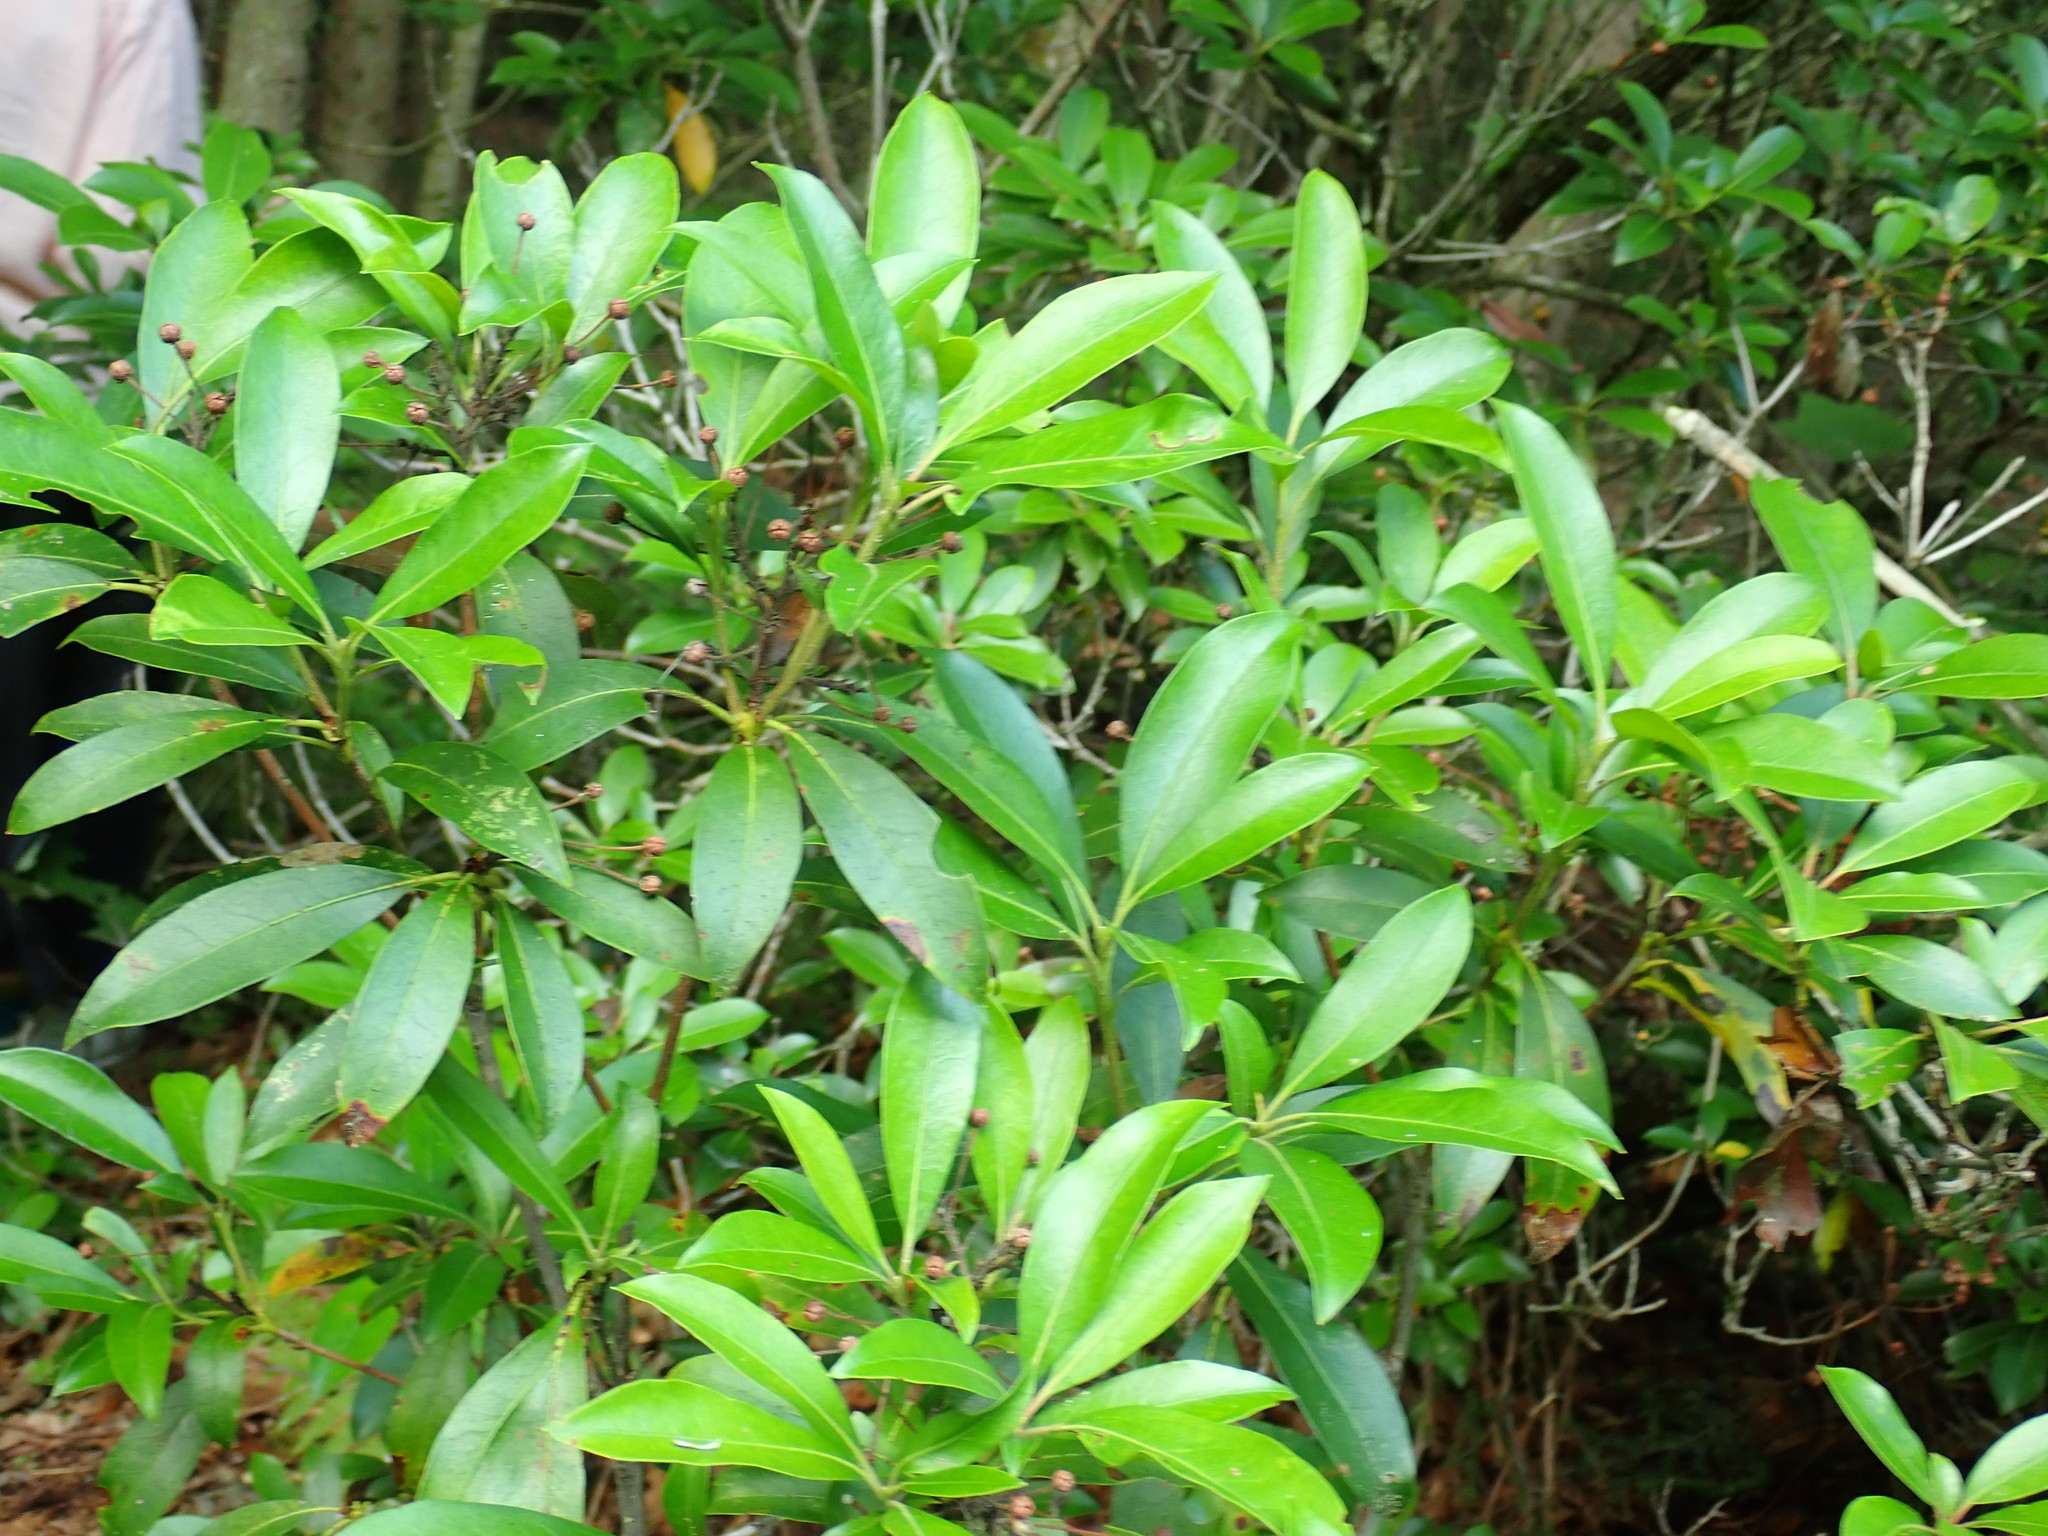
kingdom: Plantae
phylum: Tracheophyta
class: Magnoliopsida
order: Ericales
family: Ericaceae
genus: Kalmia
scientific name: Kalmia latifolia
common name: Mountain-laurel
